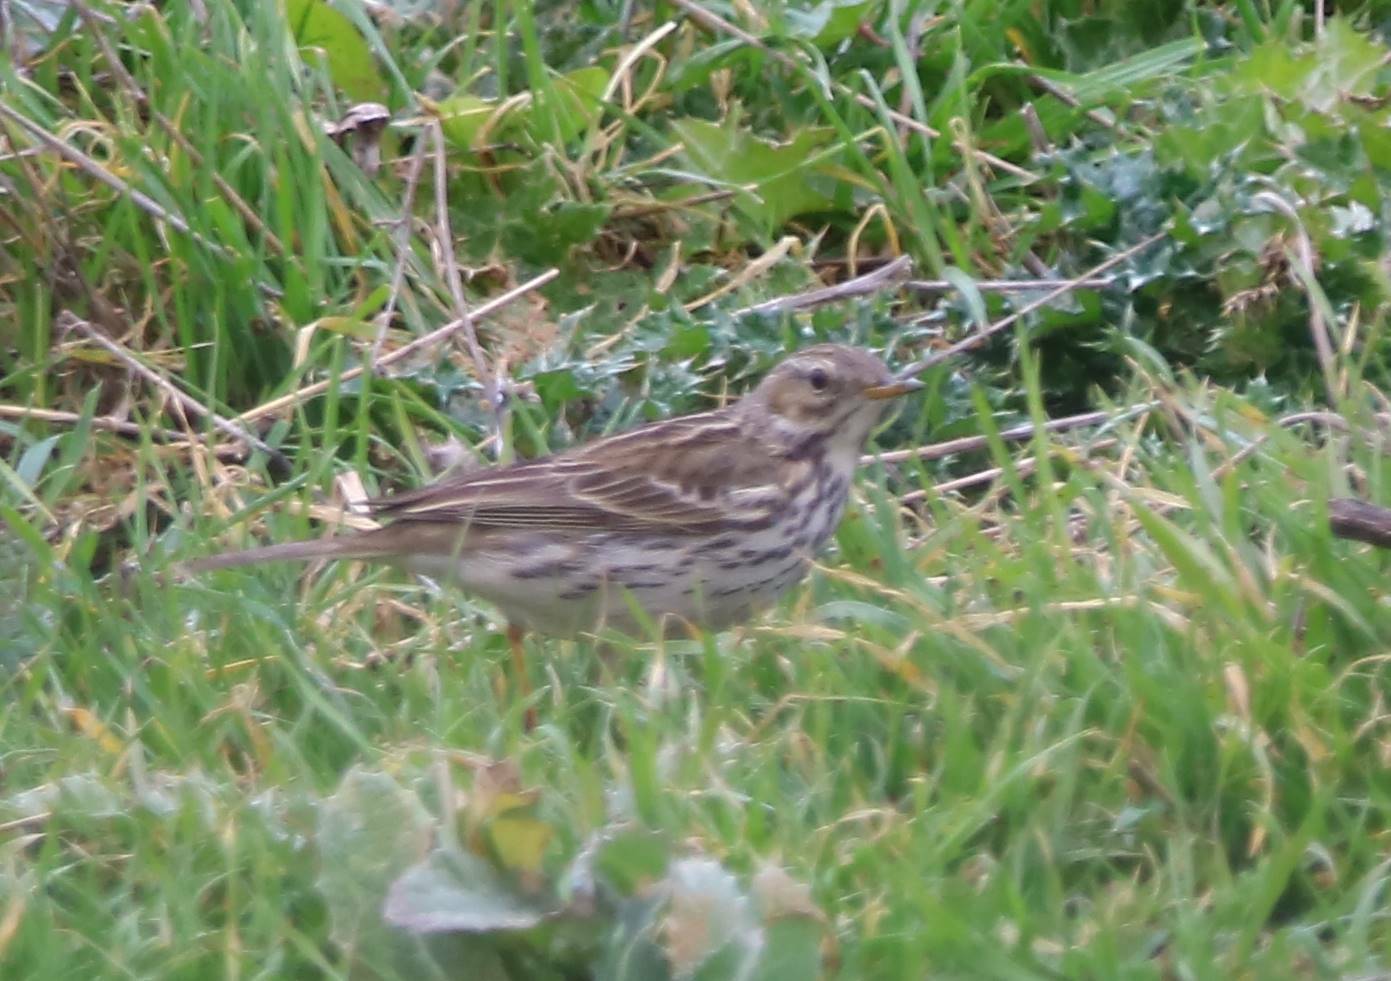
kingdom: Animalia
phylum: Chordata
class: Aves
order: Passeriformes
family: Motacillidae
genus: Anthus
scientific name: Anthus pratensis
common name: Meadow pipit
